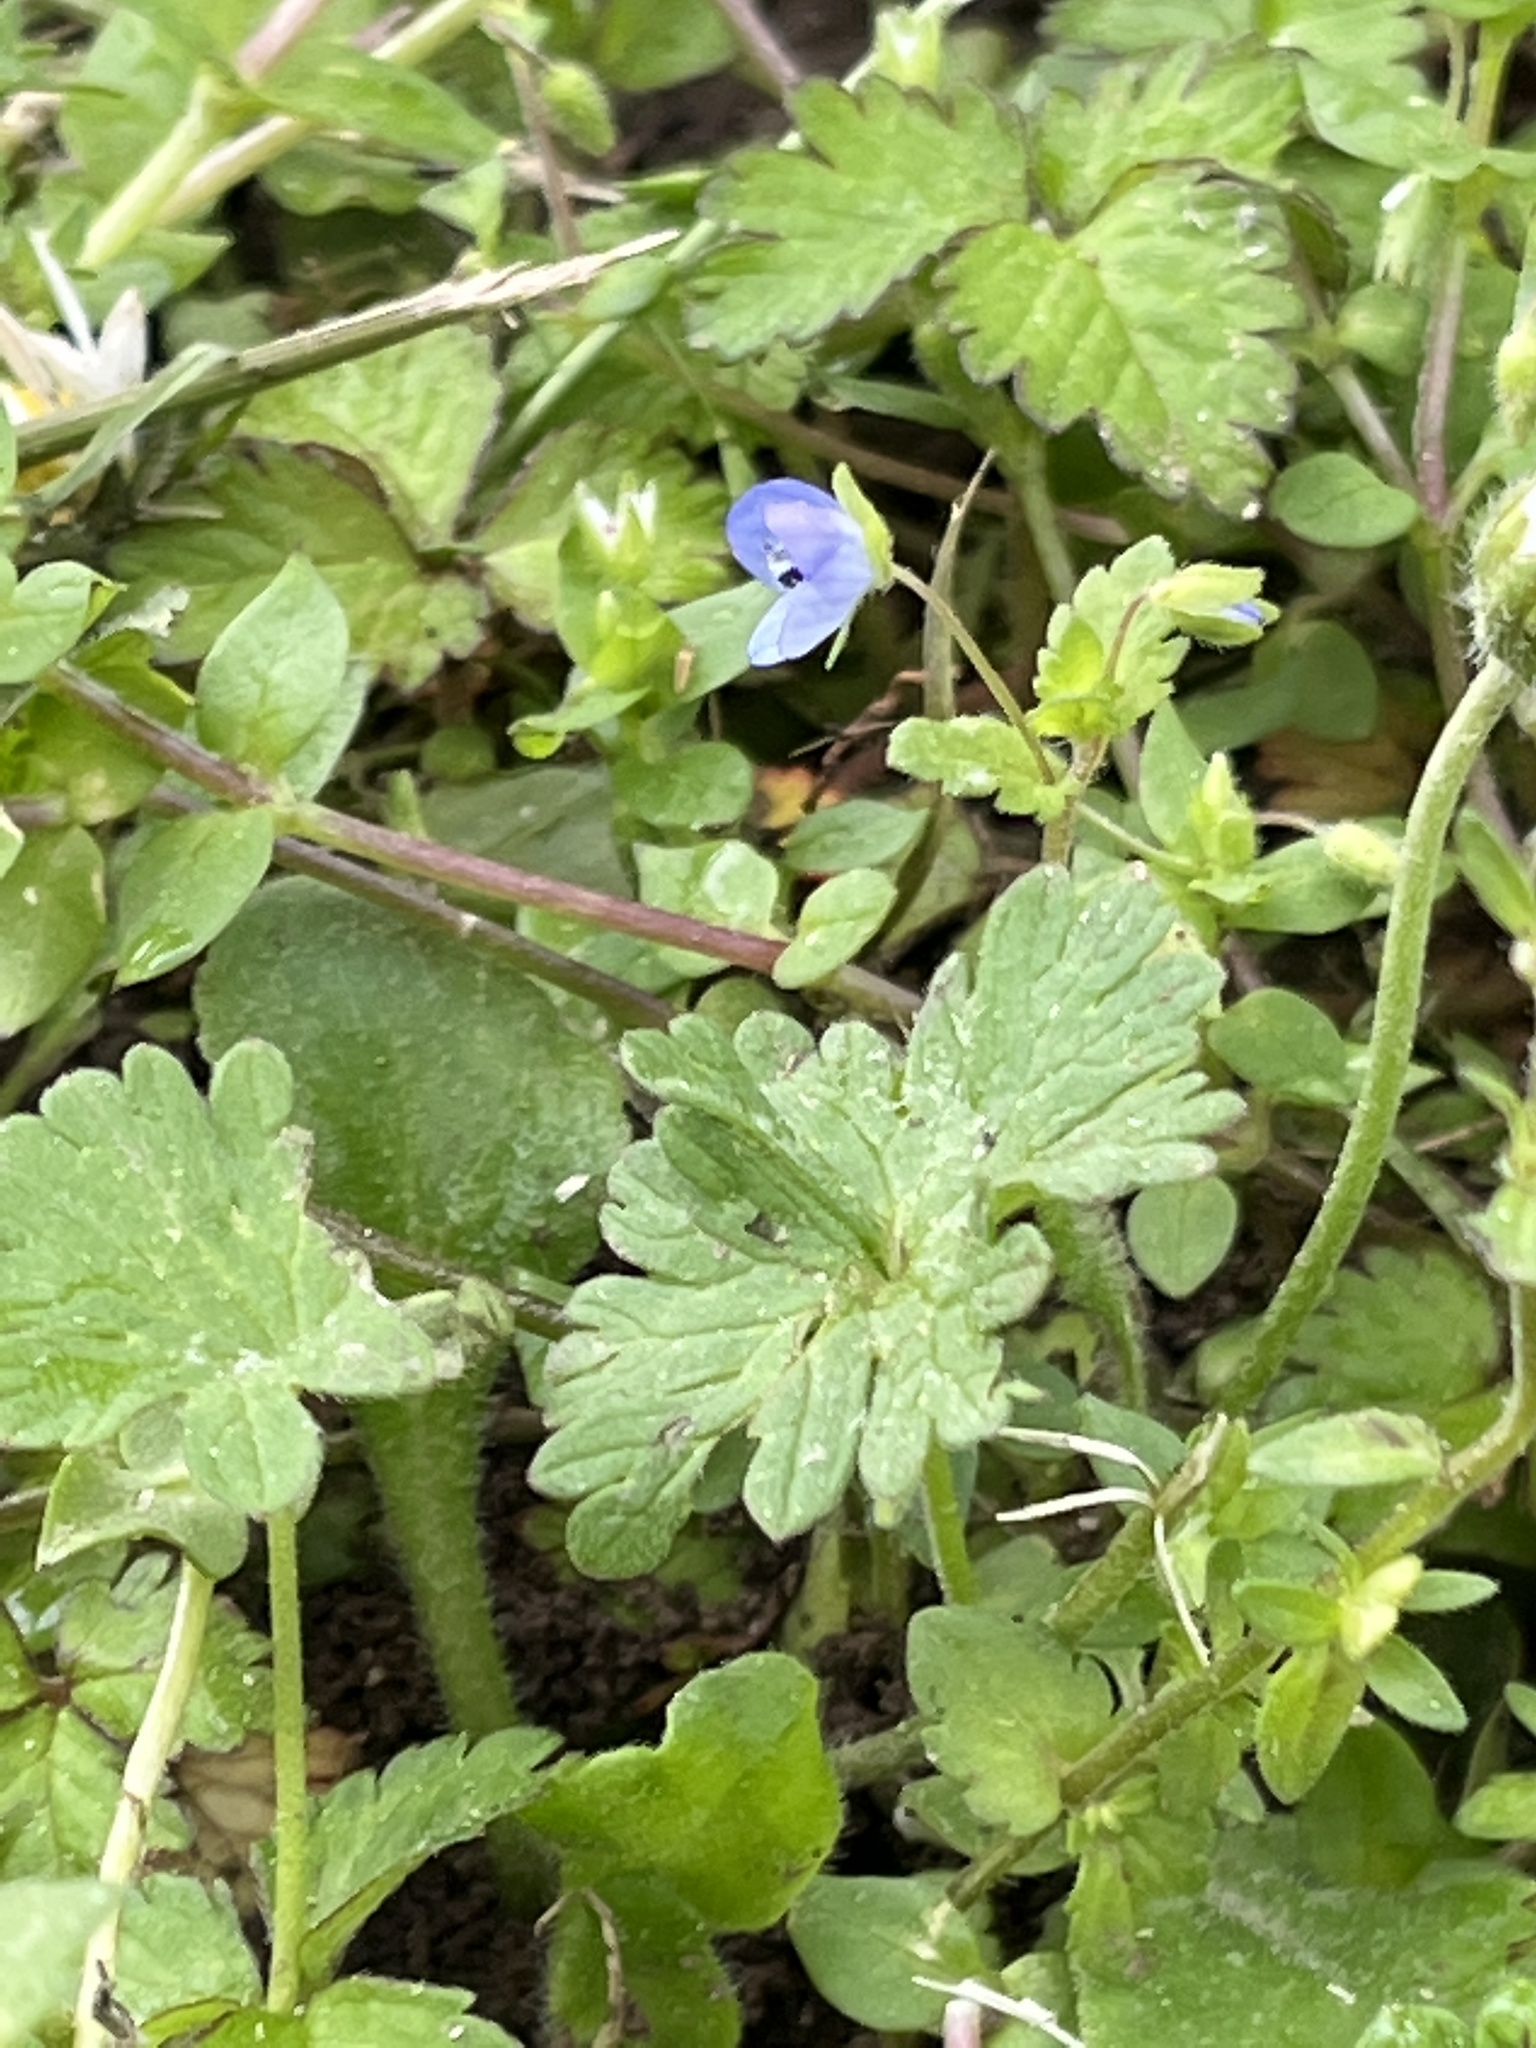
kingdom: Plantae
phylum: Tracheophyta
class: Magnoliopsida
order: Lamiales
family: Plantaginaceae
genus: Veronica
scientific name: Veronica persica
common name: Common field-speedwell
